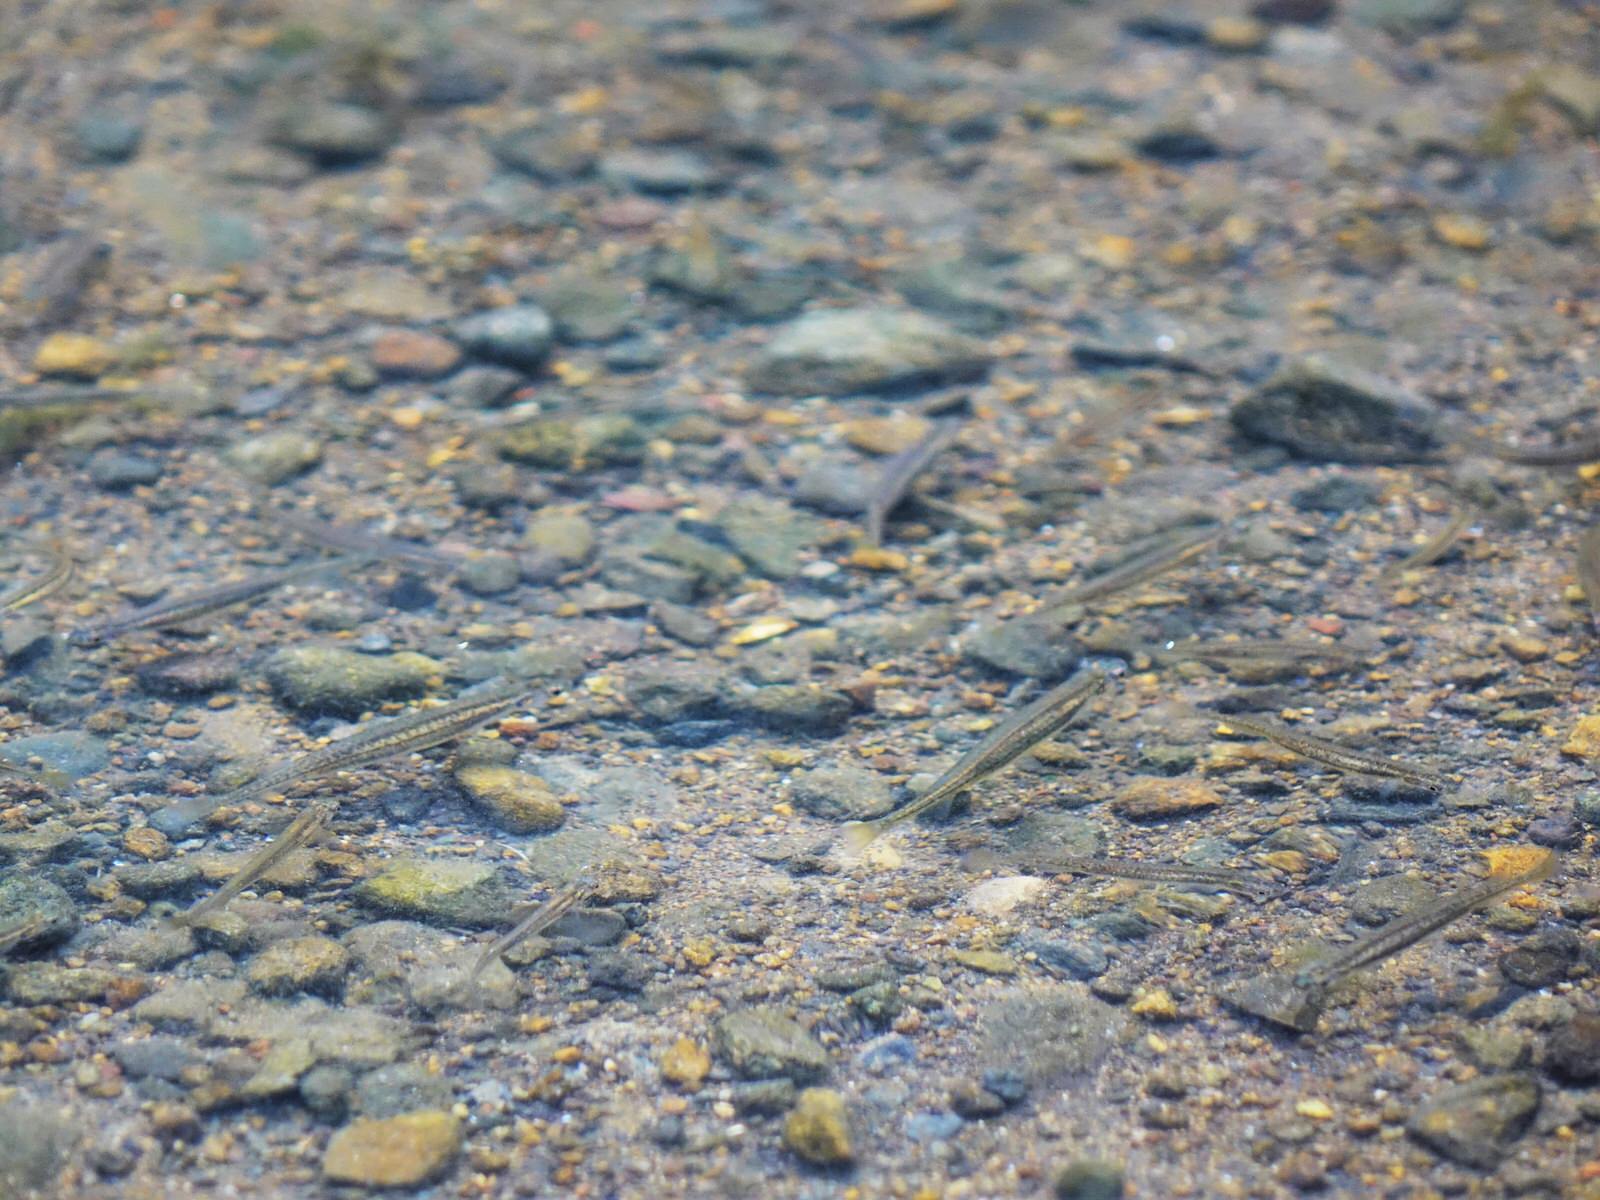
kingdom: Animalia
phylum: Chordata
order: Osmeriformes
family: Galaxiidae
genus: Galaxias
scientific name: Galaxias maculatus
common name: Common galaxias
